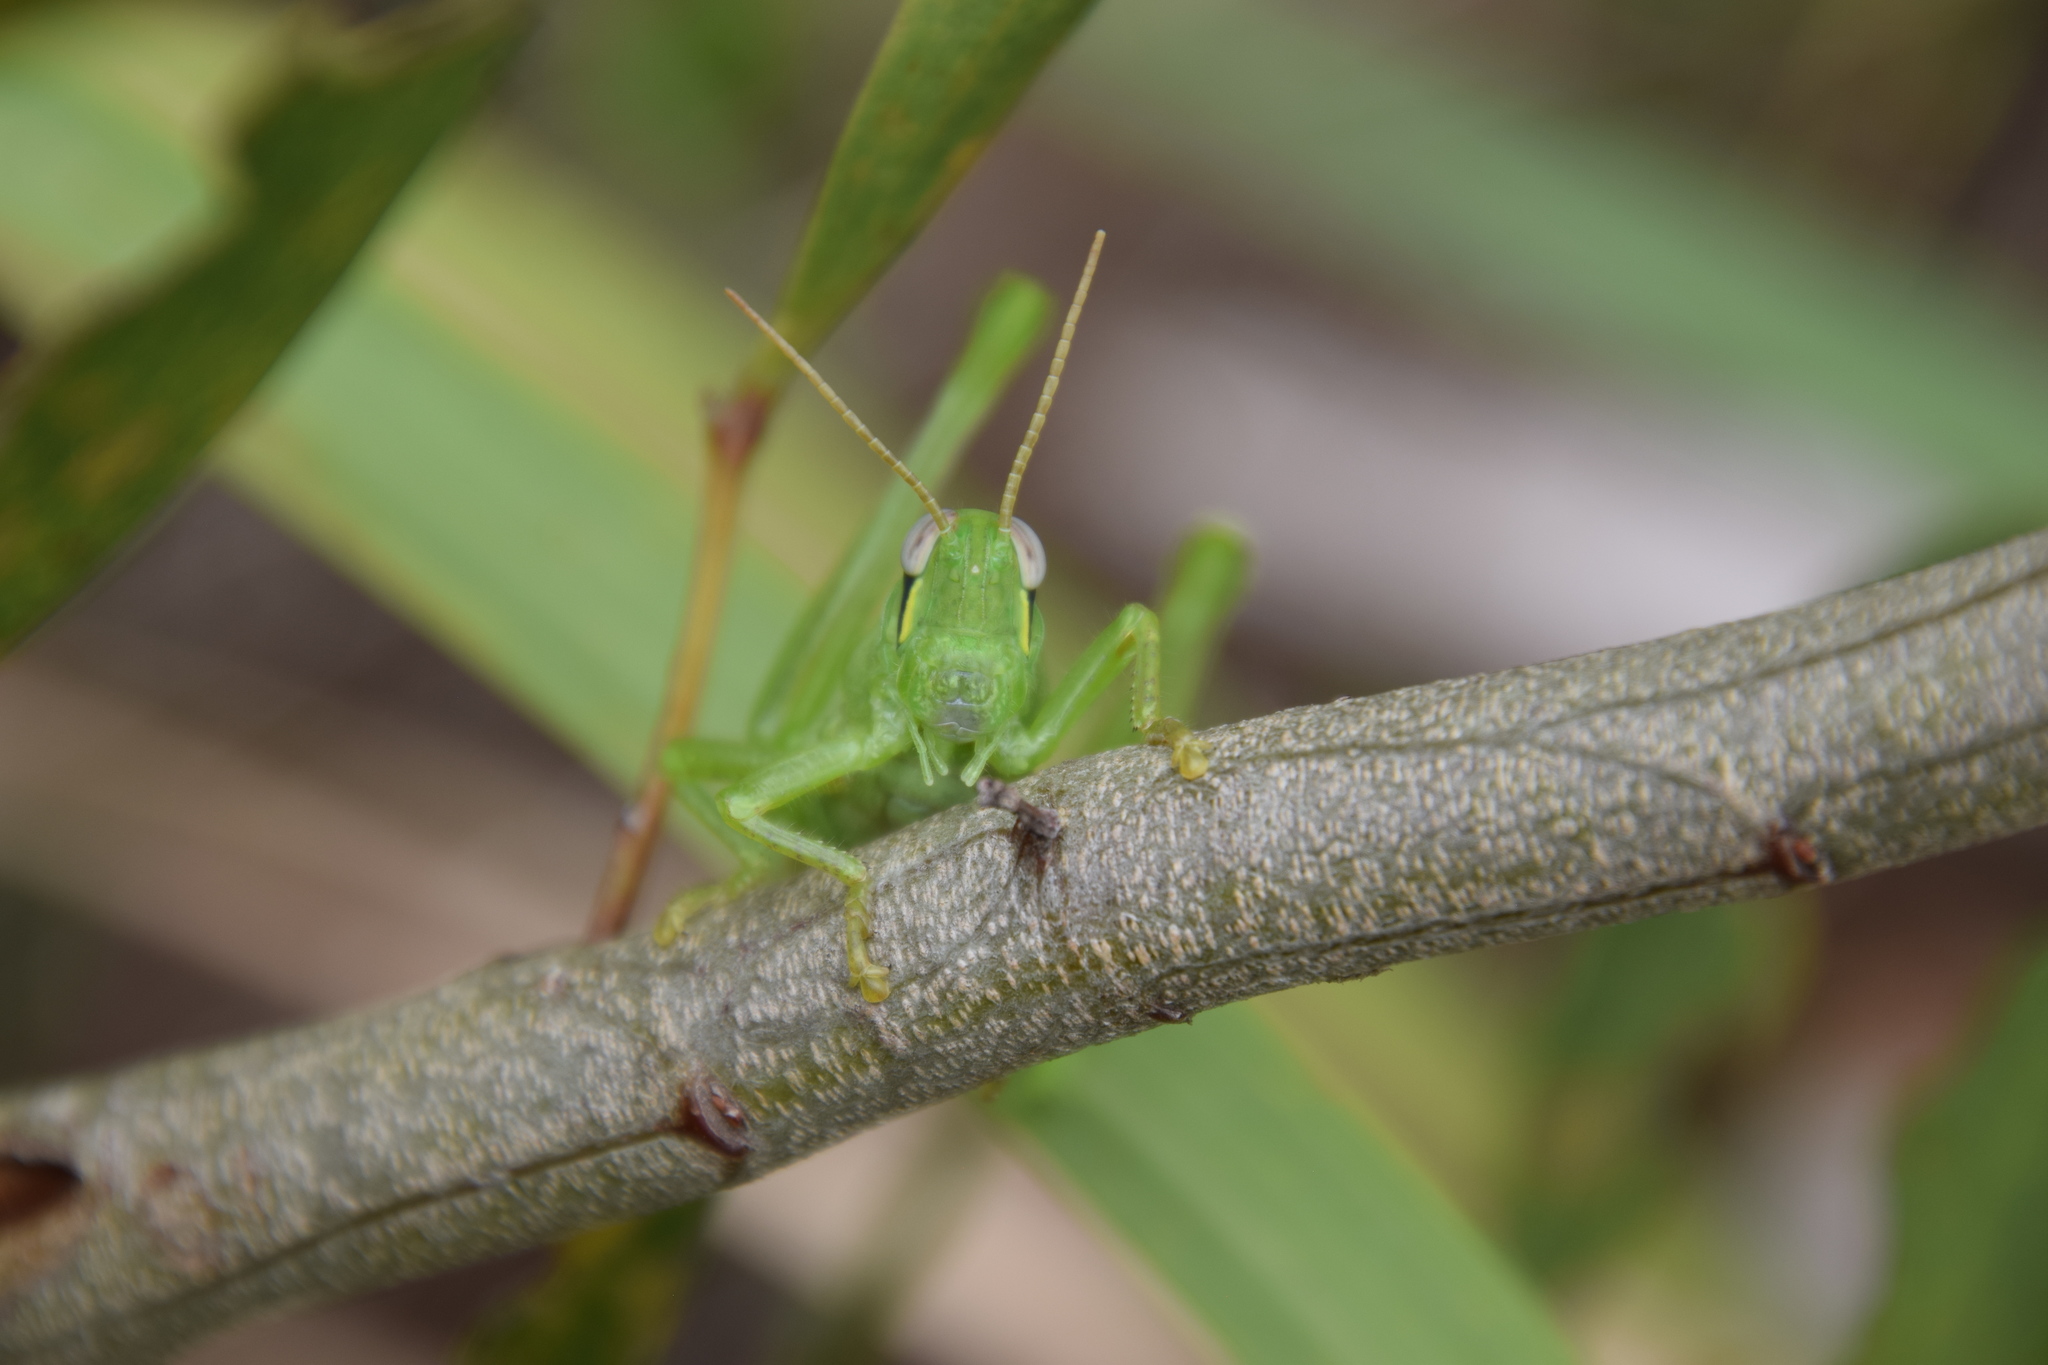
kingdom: Animalia
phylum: Arthropoda
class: Insecta
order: Orthoptera
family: Acrididae
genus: Austracris
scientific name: Austracris guttulosa
